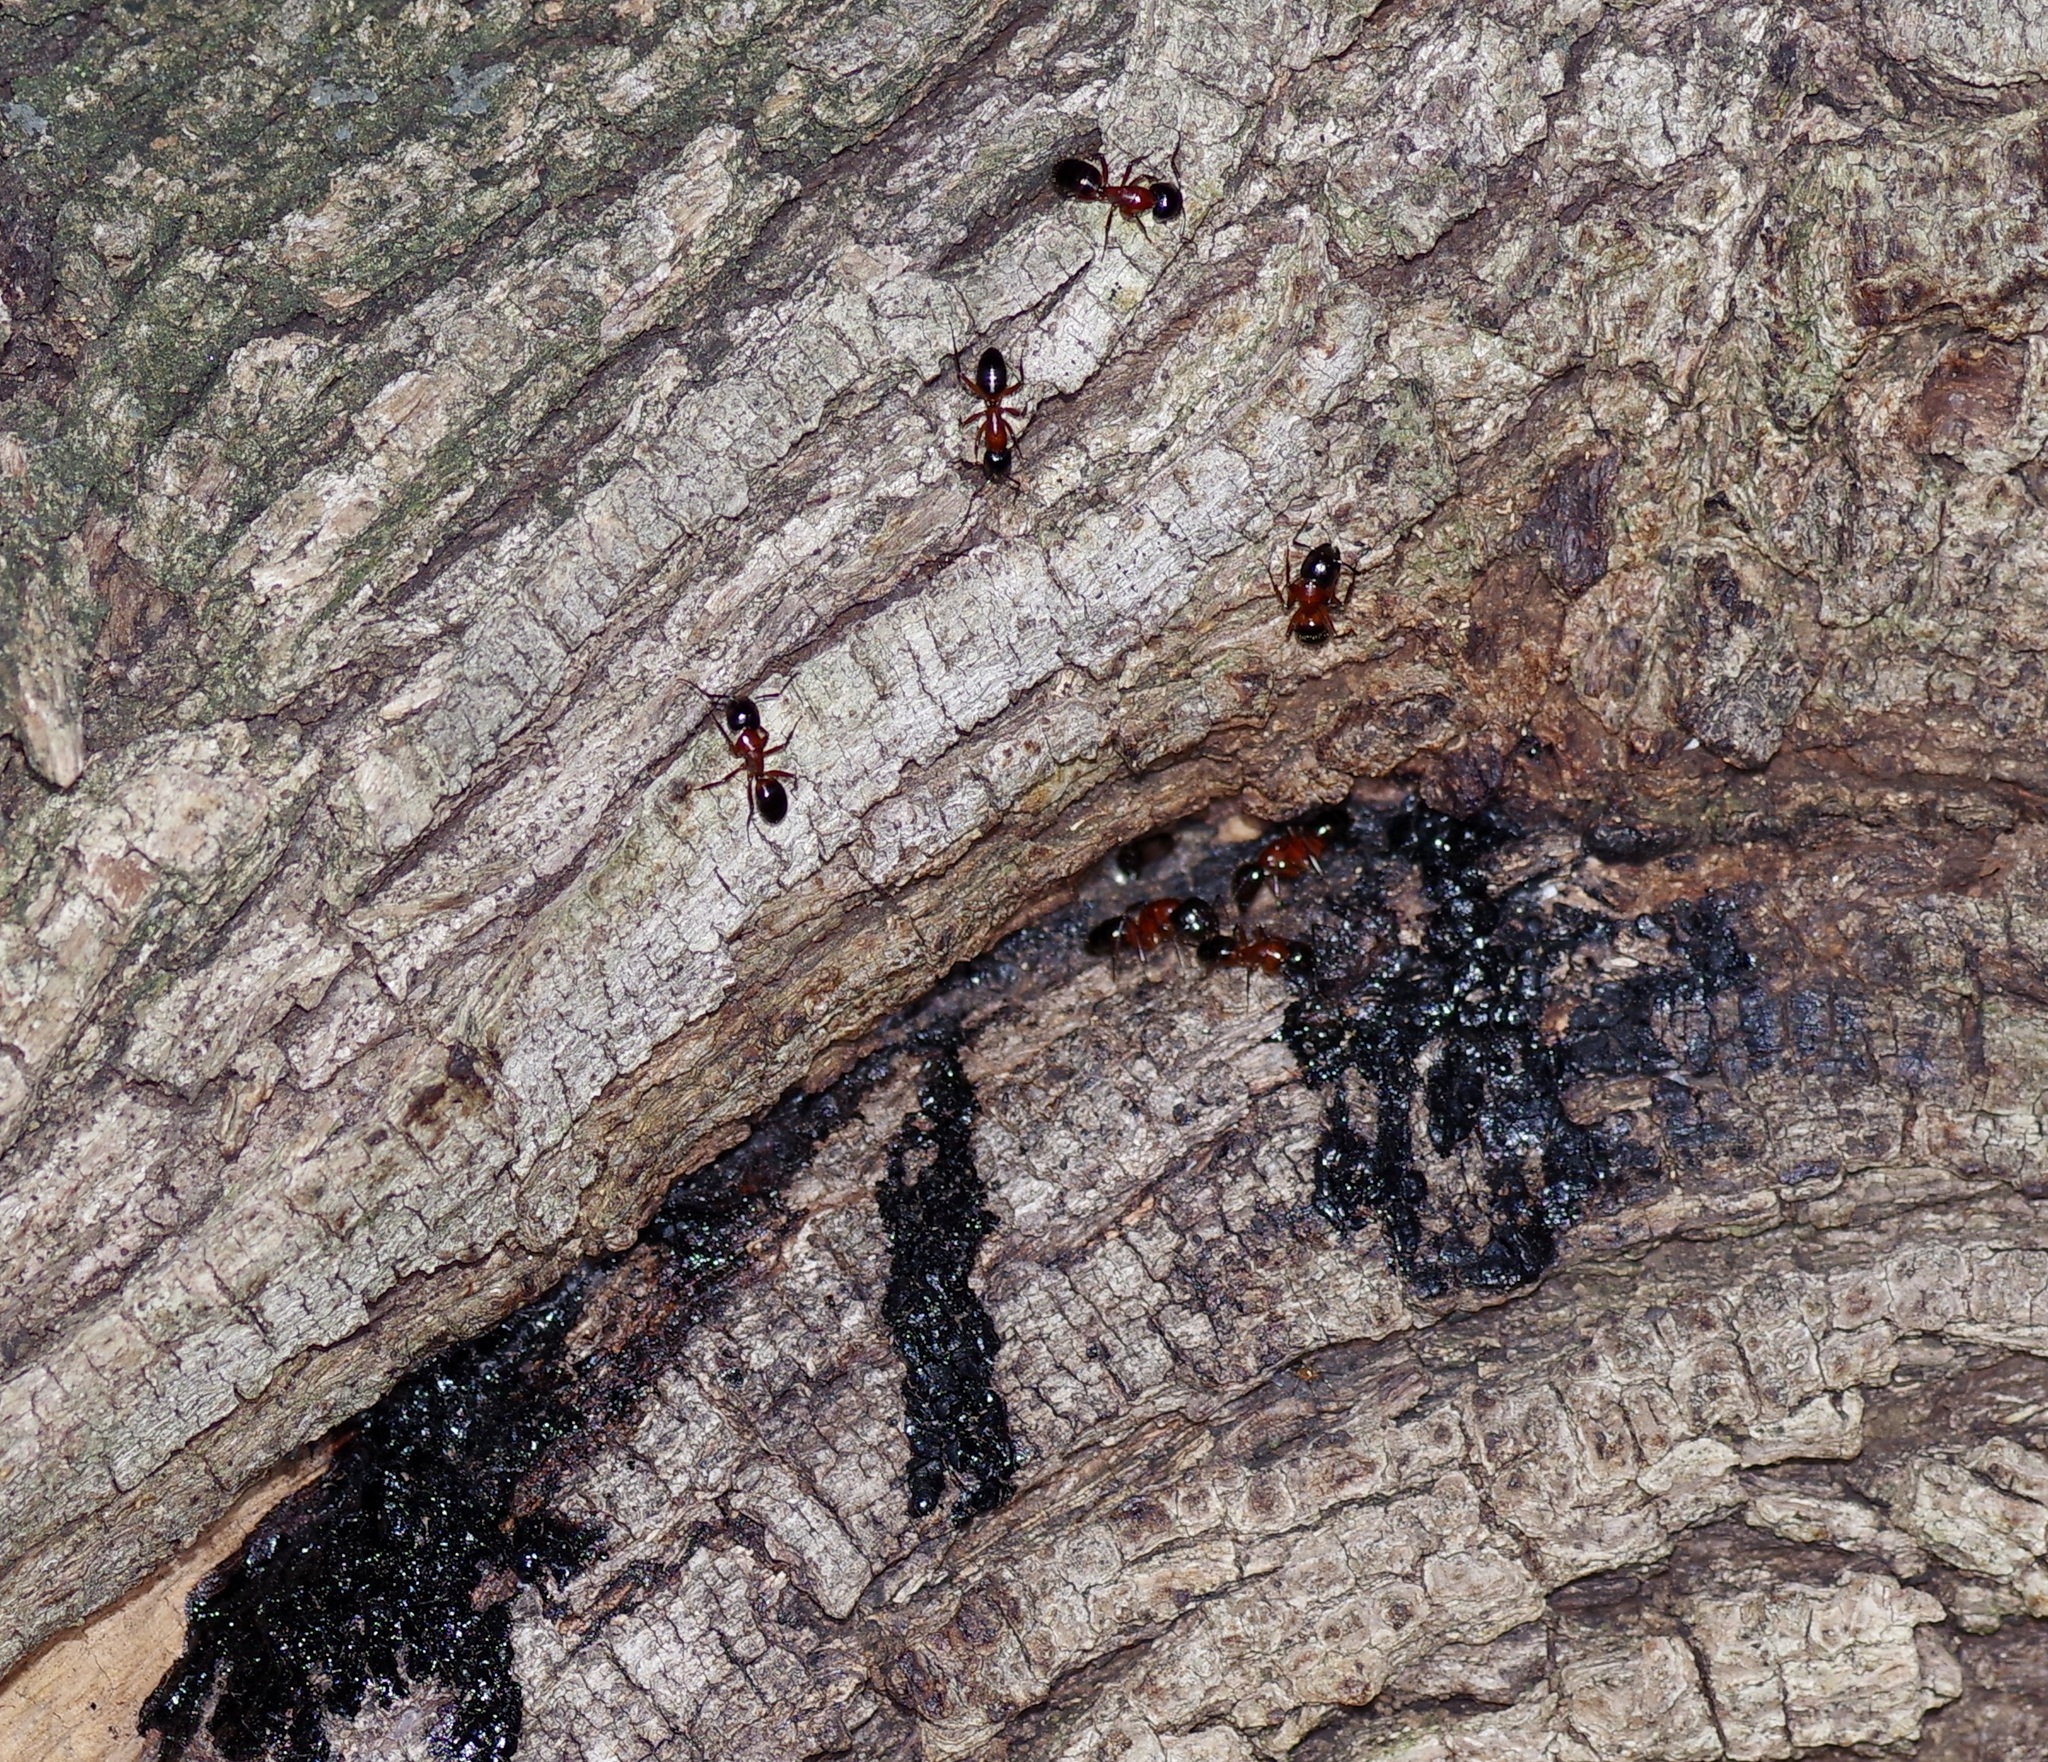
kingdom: Animalia
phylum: Arthropoda
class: Insecta
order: Hymenoptera
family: Formicidae
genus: Camponotus
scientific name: Camponotus texanus
